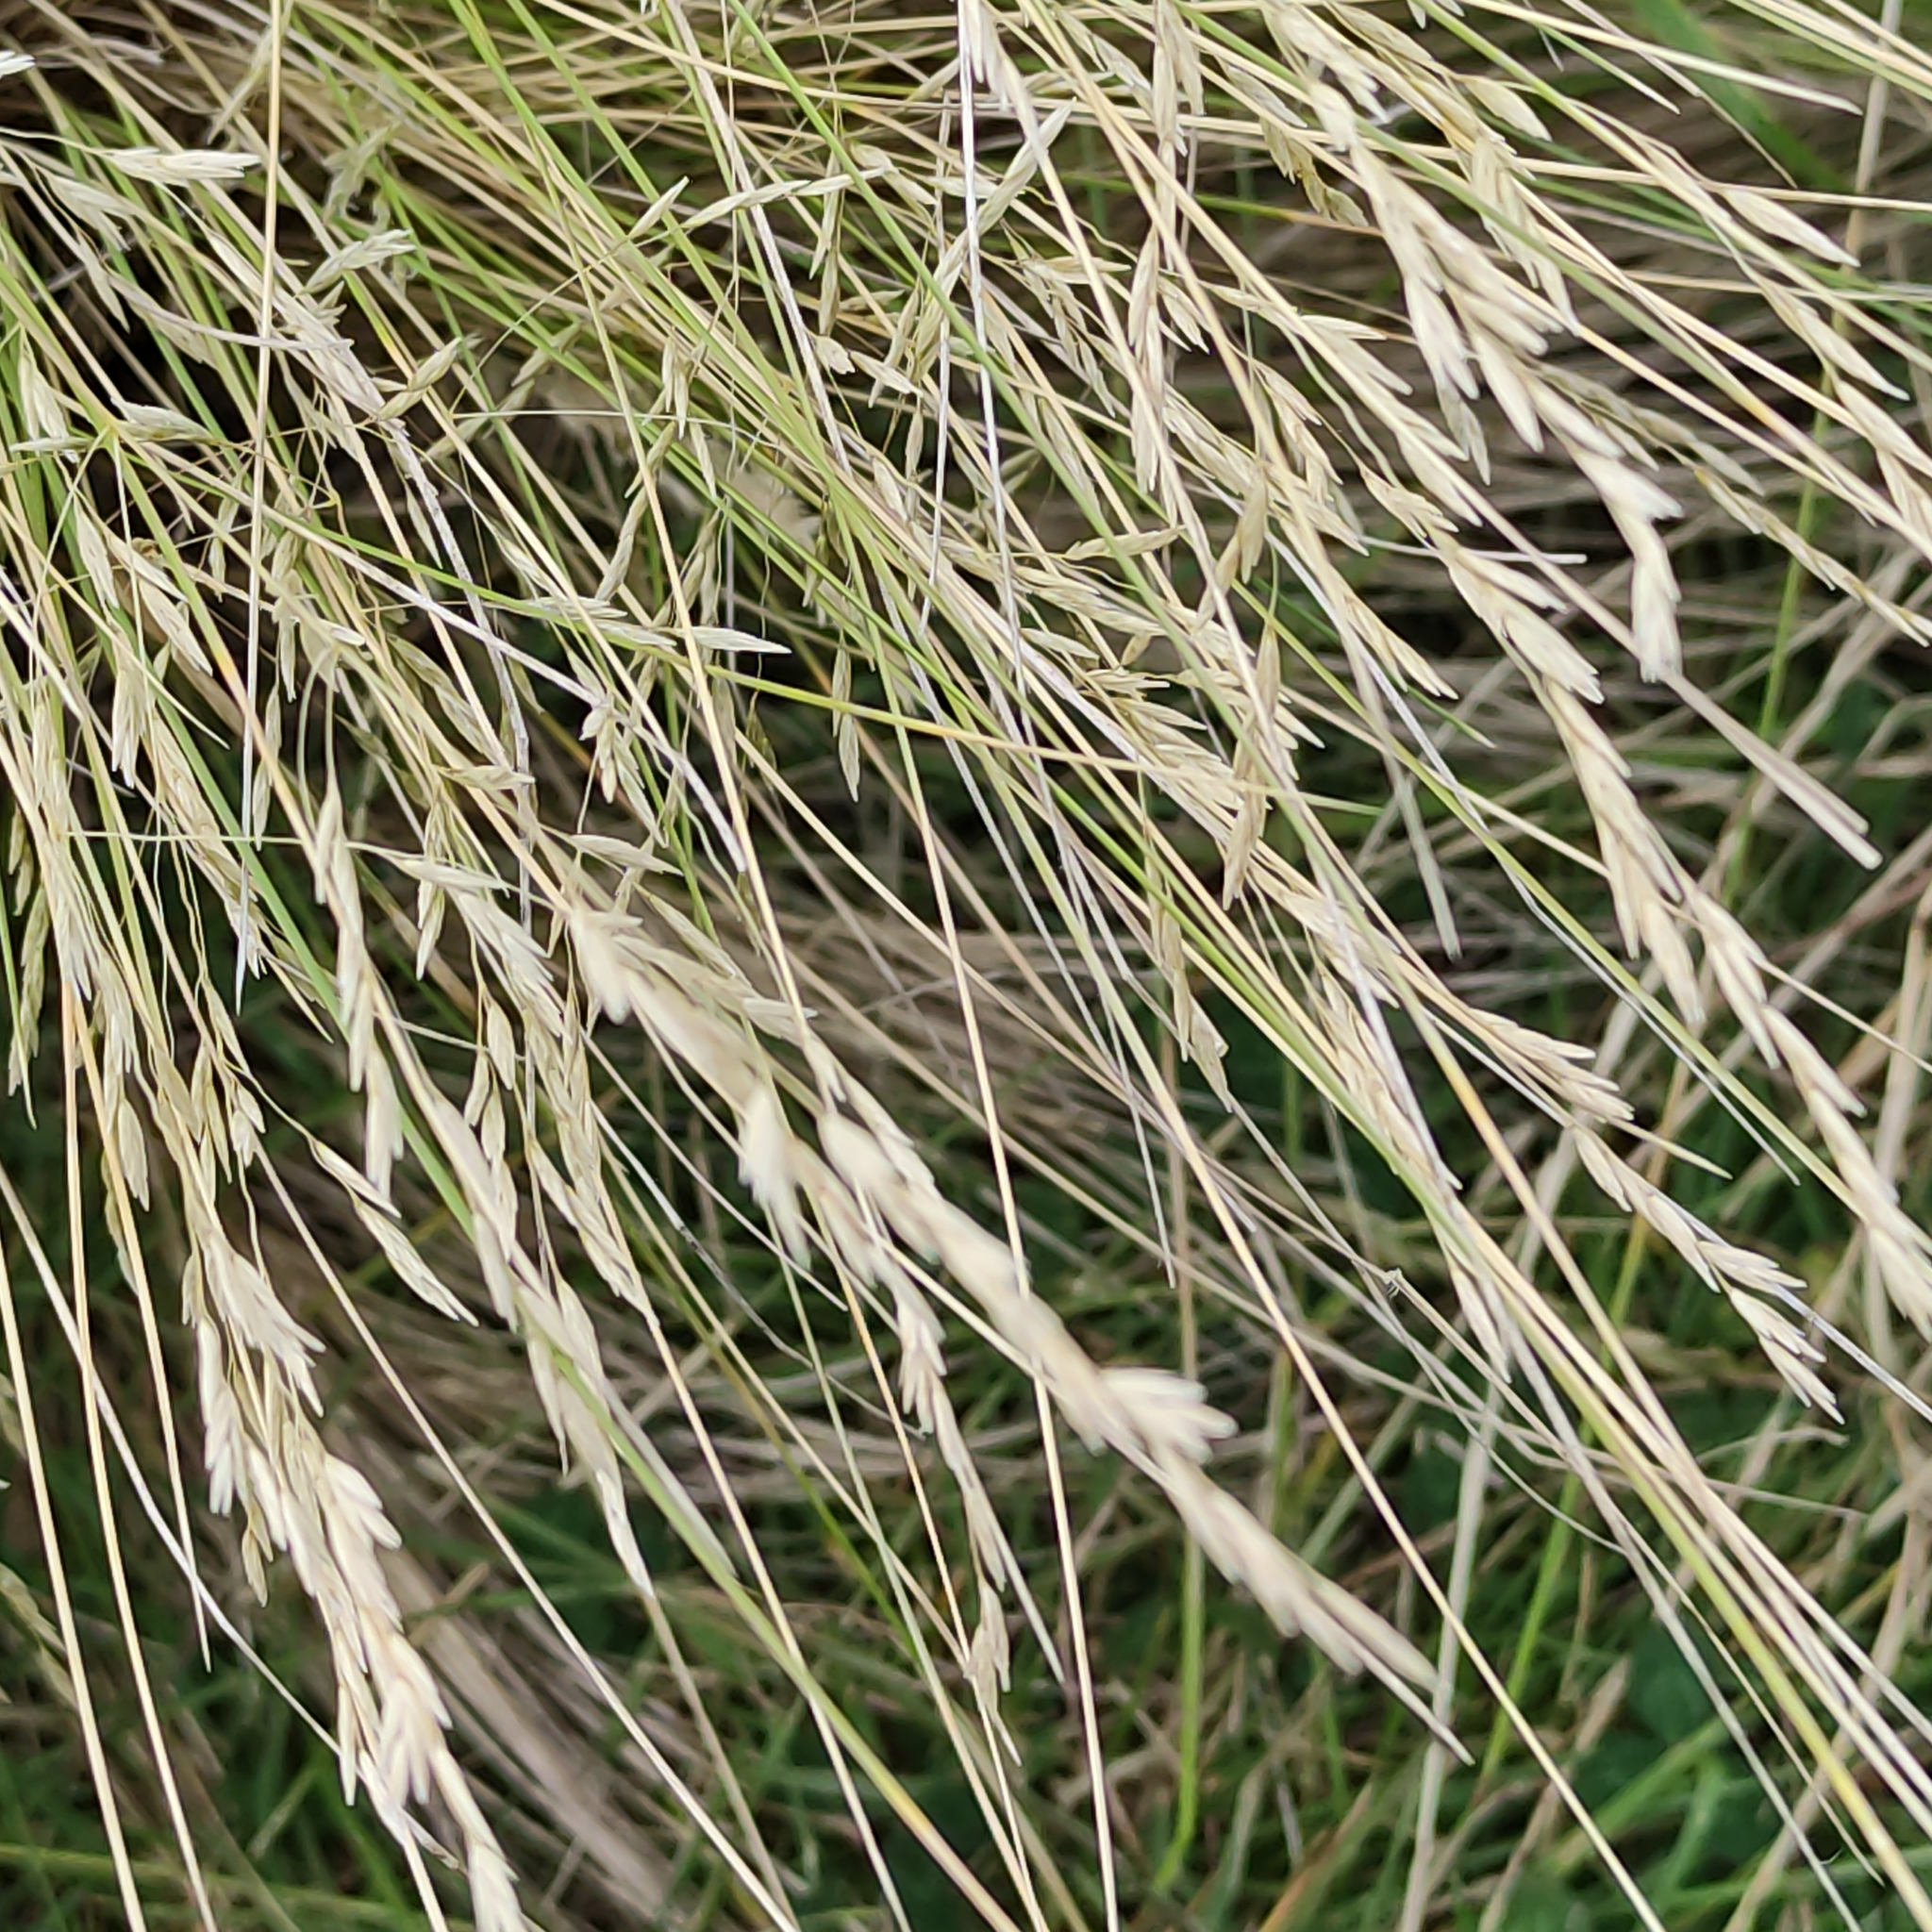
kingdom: Plantae
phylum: Tracheophyta
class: Liliopsida
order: Poales
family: Poaceae
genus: Poa
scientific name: Poa cita
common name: Silver tussock
